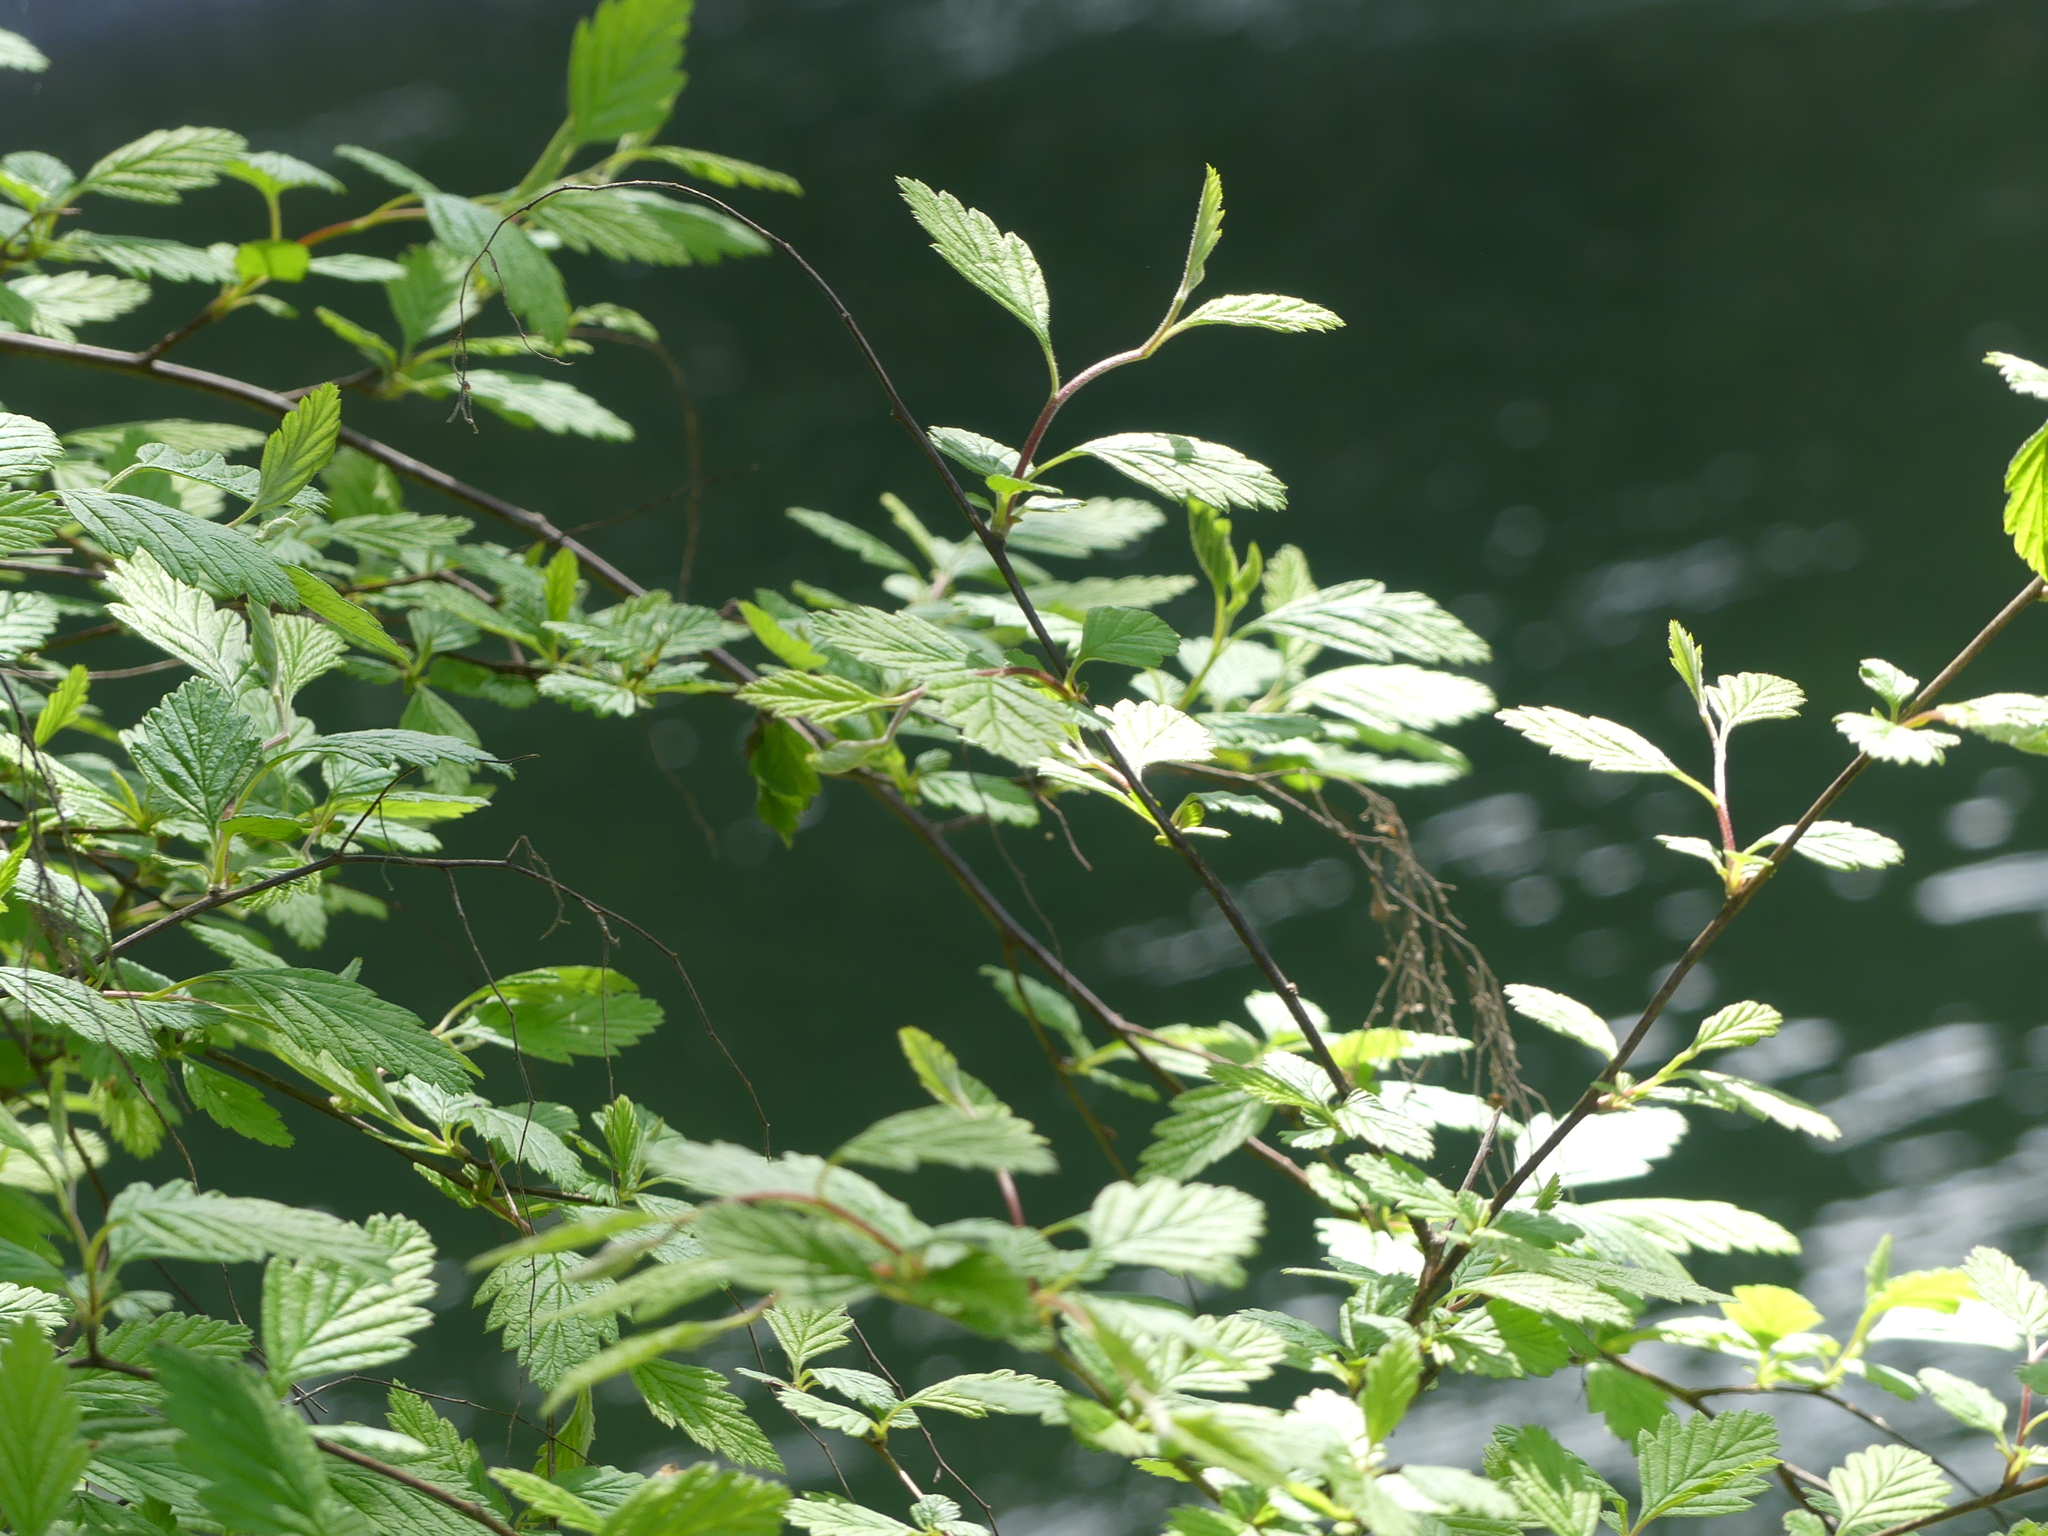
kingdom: Plantae
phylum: Tracheophyta
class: Magnoliopsida
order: Rosales
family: Rosaceae
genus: Holodiscus
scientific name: Holodiscus discolor
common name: Oceanspray
